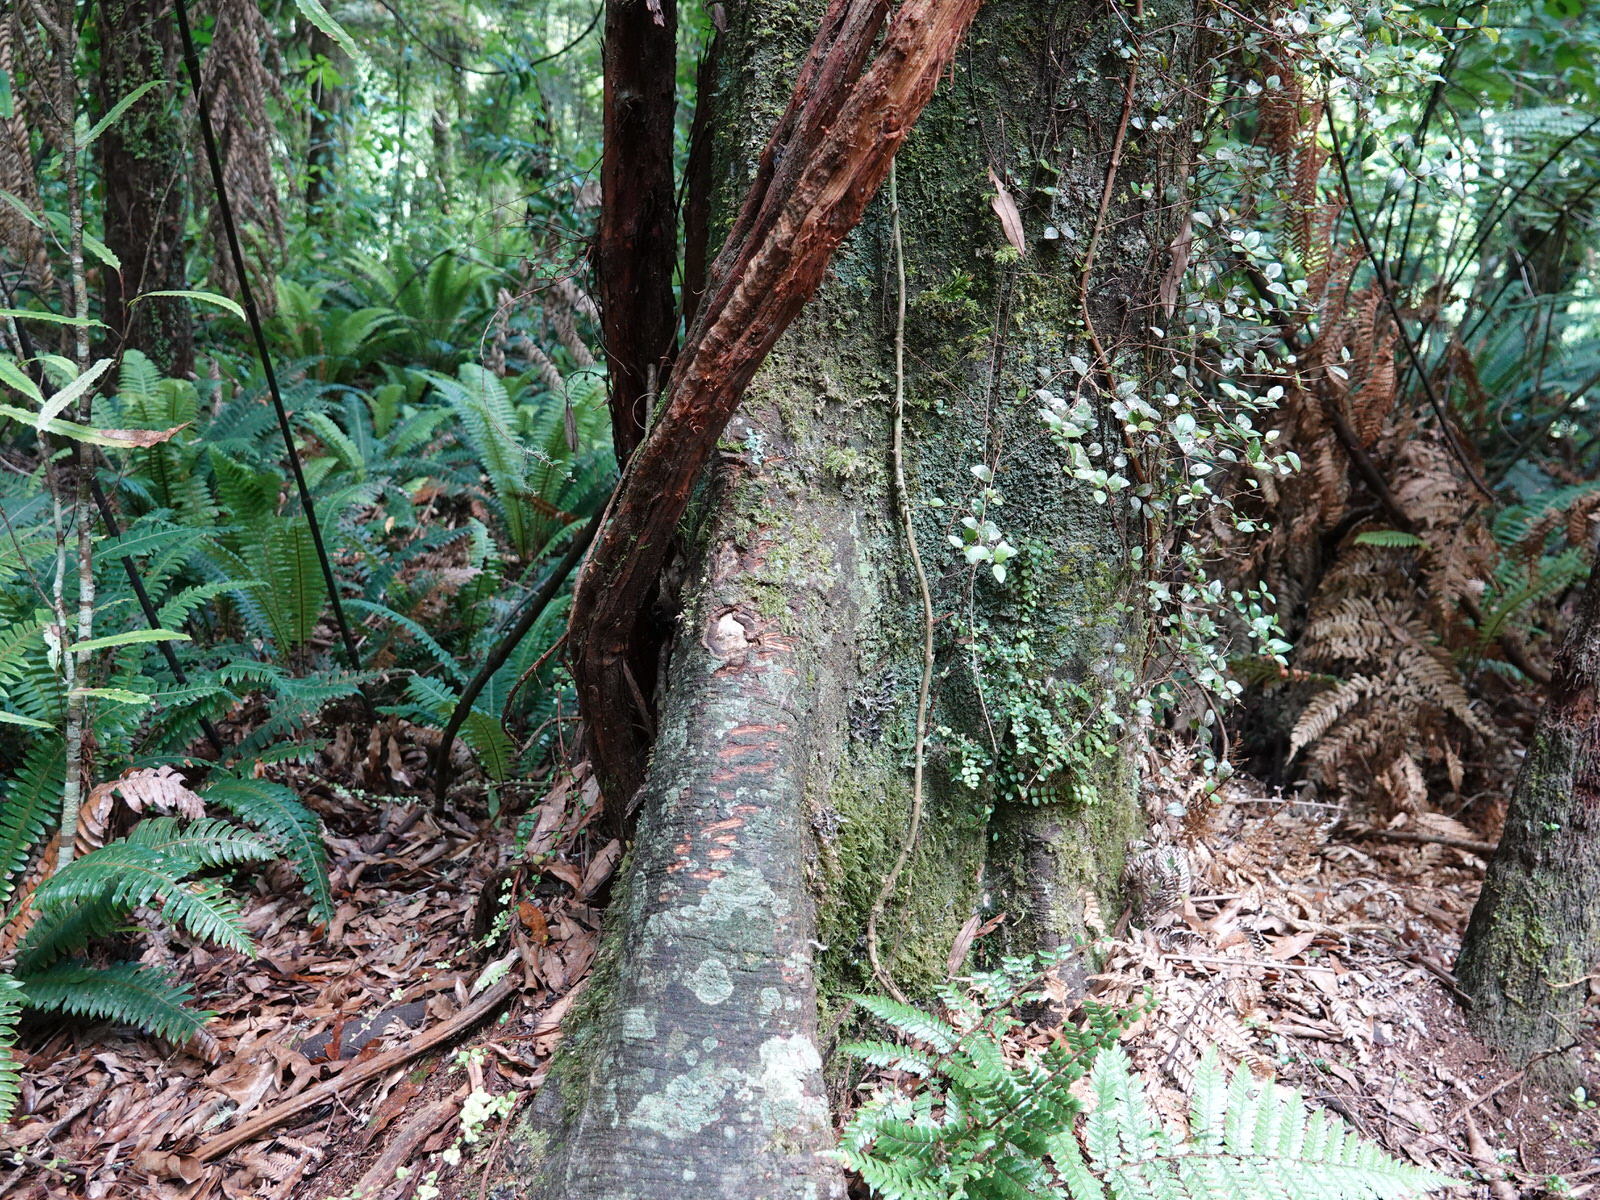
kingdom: Animalia
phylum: Chordata
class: Mammalia
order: Diprotodontia
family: Phalangeridae
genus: Trichosurus
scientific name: Trichosurus vulpecula
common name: Common brushtail
